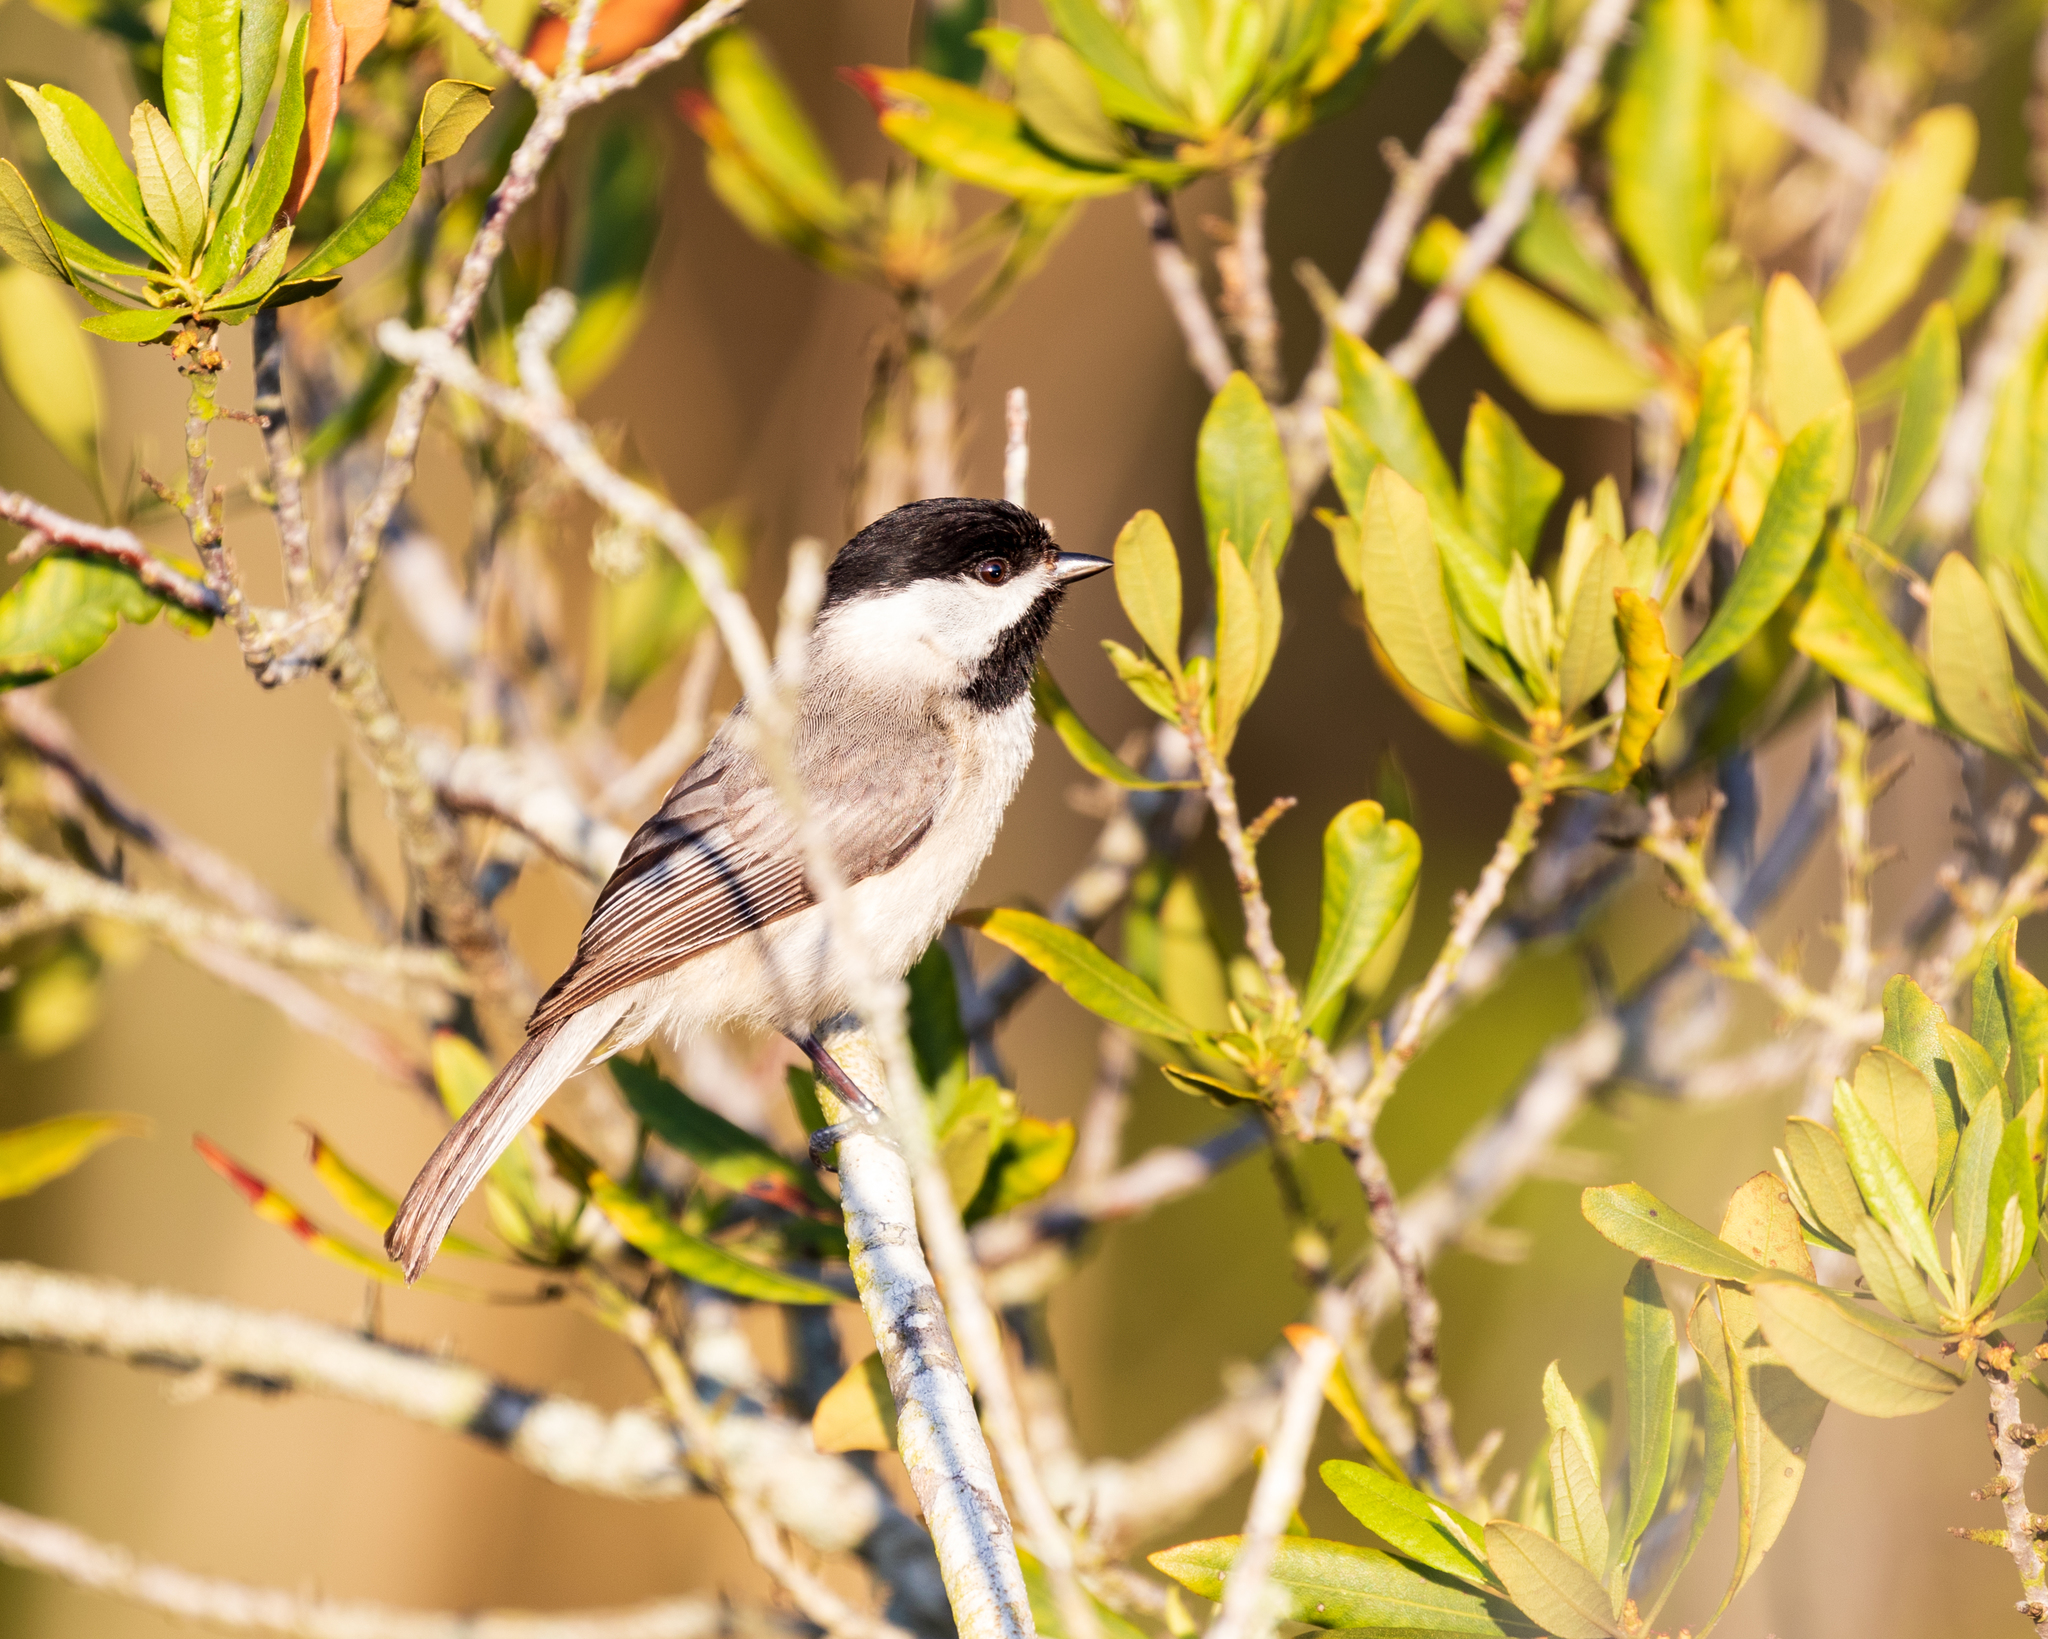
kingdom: Animalia
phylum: Chordata
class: Aves
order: Passeriformes
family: Paridae
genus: Poecile
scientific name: Poecile carolinensis
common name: Carolina chickadee
